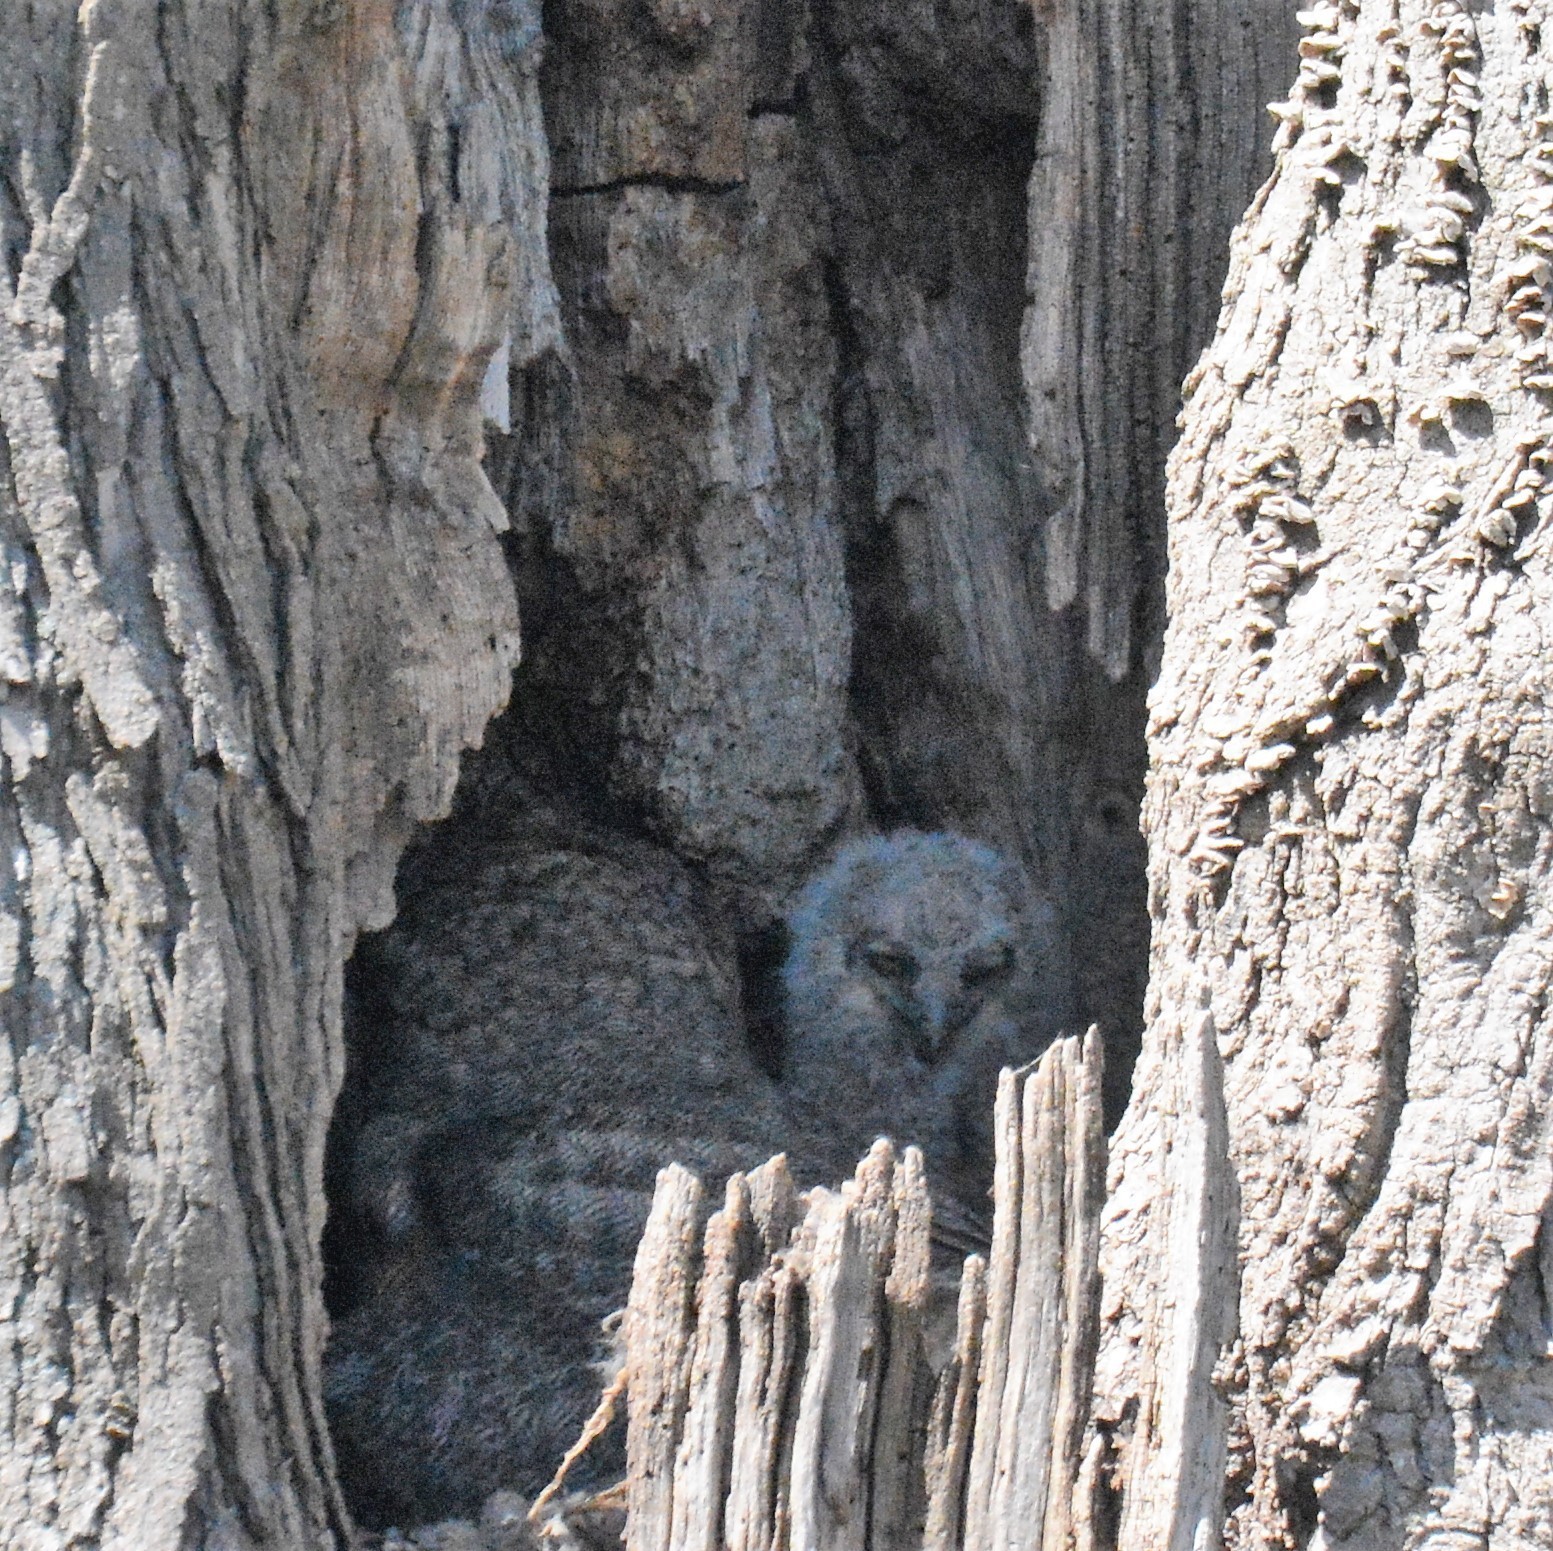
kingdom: Animalia
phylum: Chordata
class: Aves
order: Strigiformes
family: Strigidae
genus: Bubo
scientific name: Bubo virginianus
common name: Great horned owl
